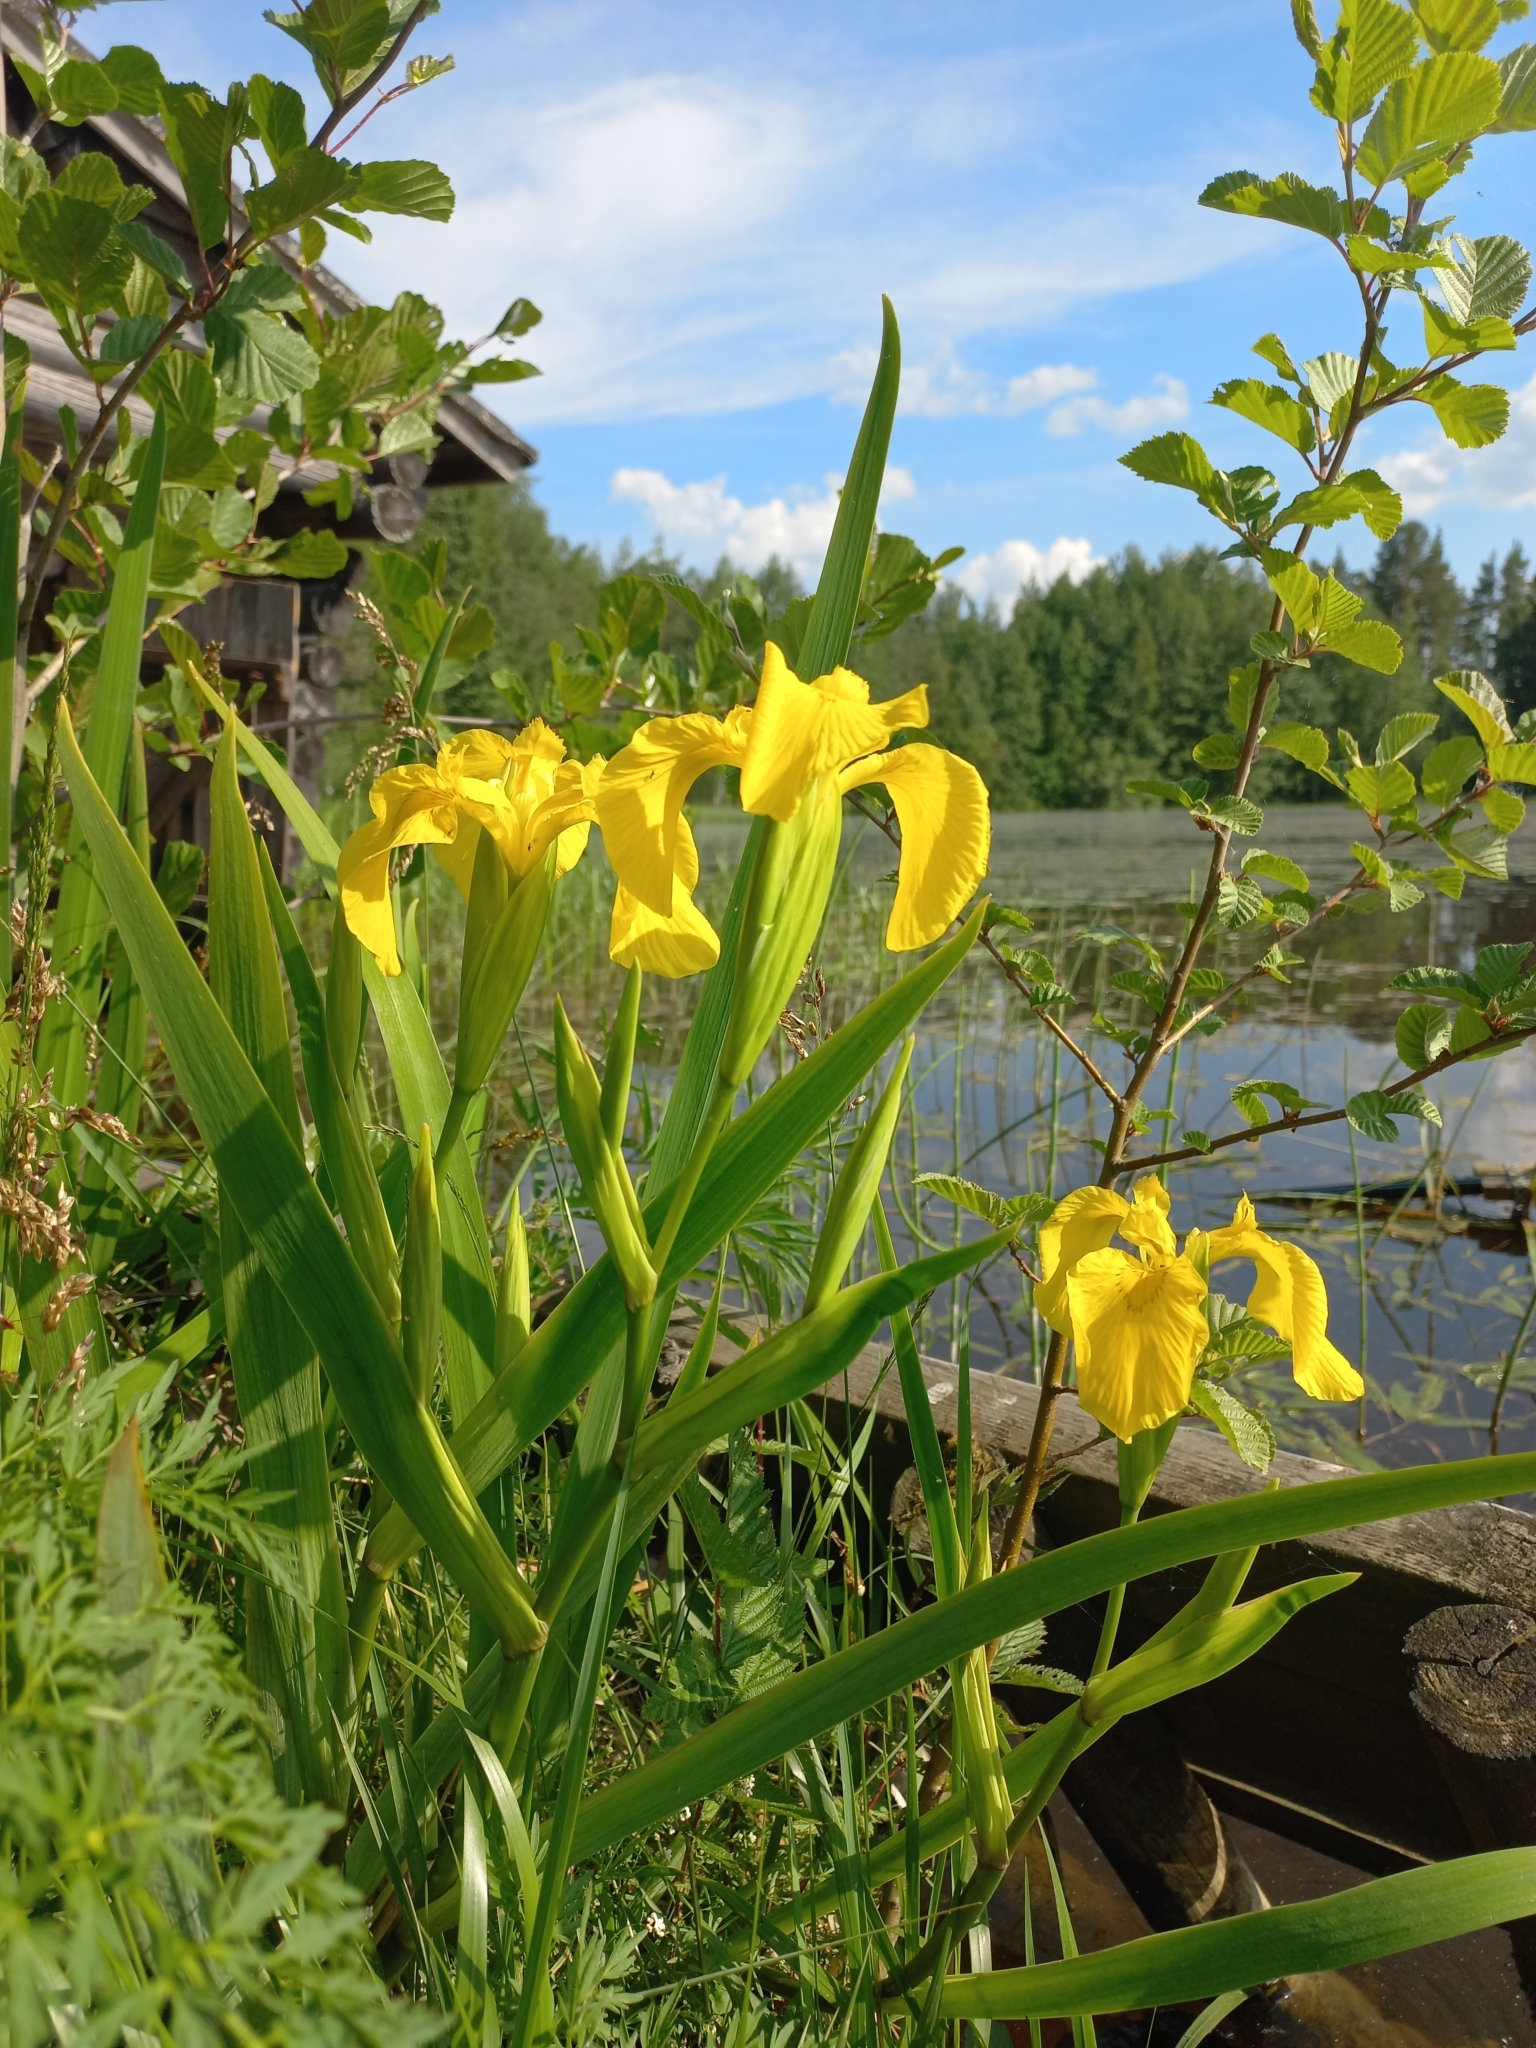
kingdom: Plantae
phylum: Tracheophyta
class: Liliopsida
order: Asparagales
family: Iridaceae
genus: Iris
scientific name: Iris pseudacorus
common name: Yellow flag
